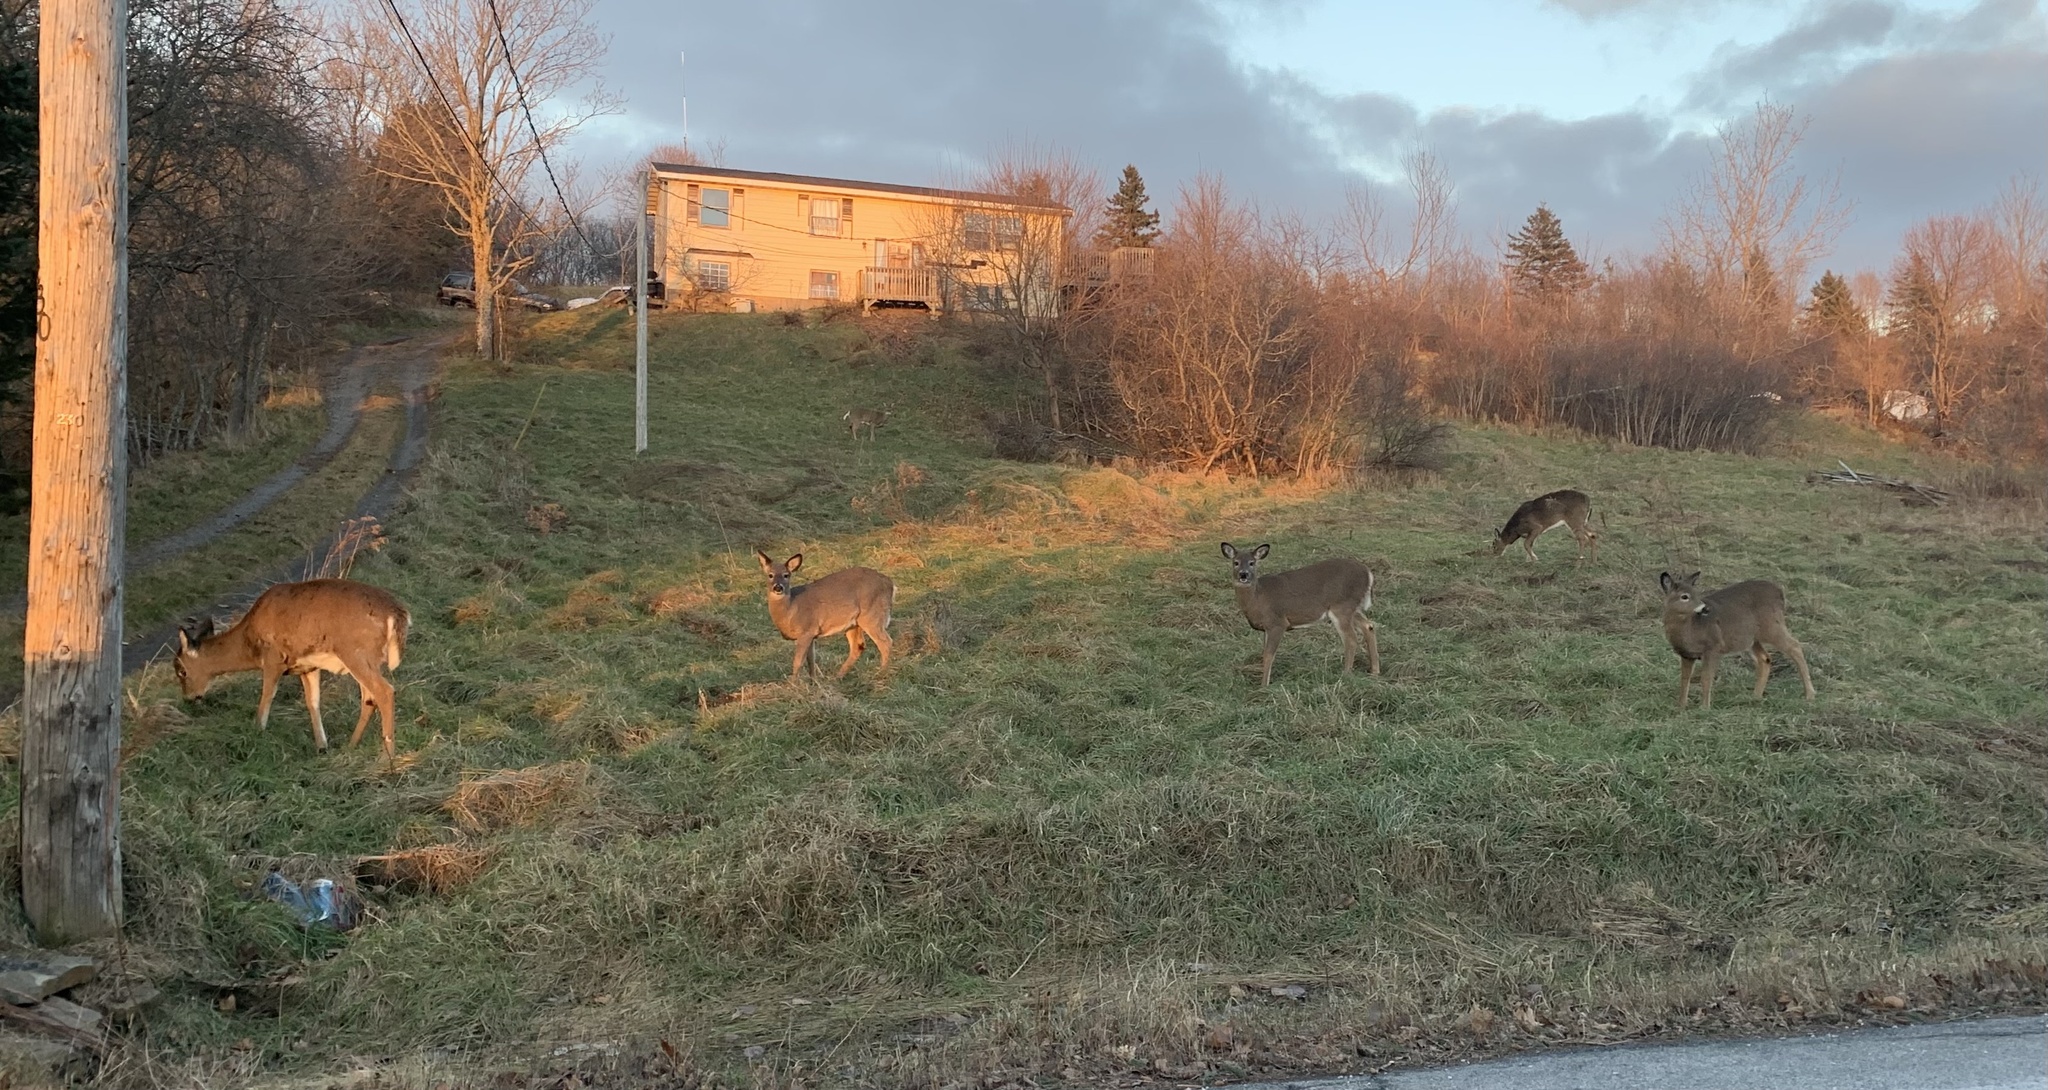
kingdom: Animalia
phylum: Chordata
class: Mammalia
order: Artiodactyla
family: Cervidae
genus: Odocoileus
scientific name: Odocoileus virginianus
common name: White-tailed deer
